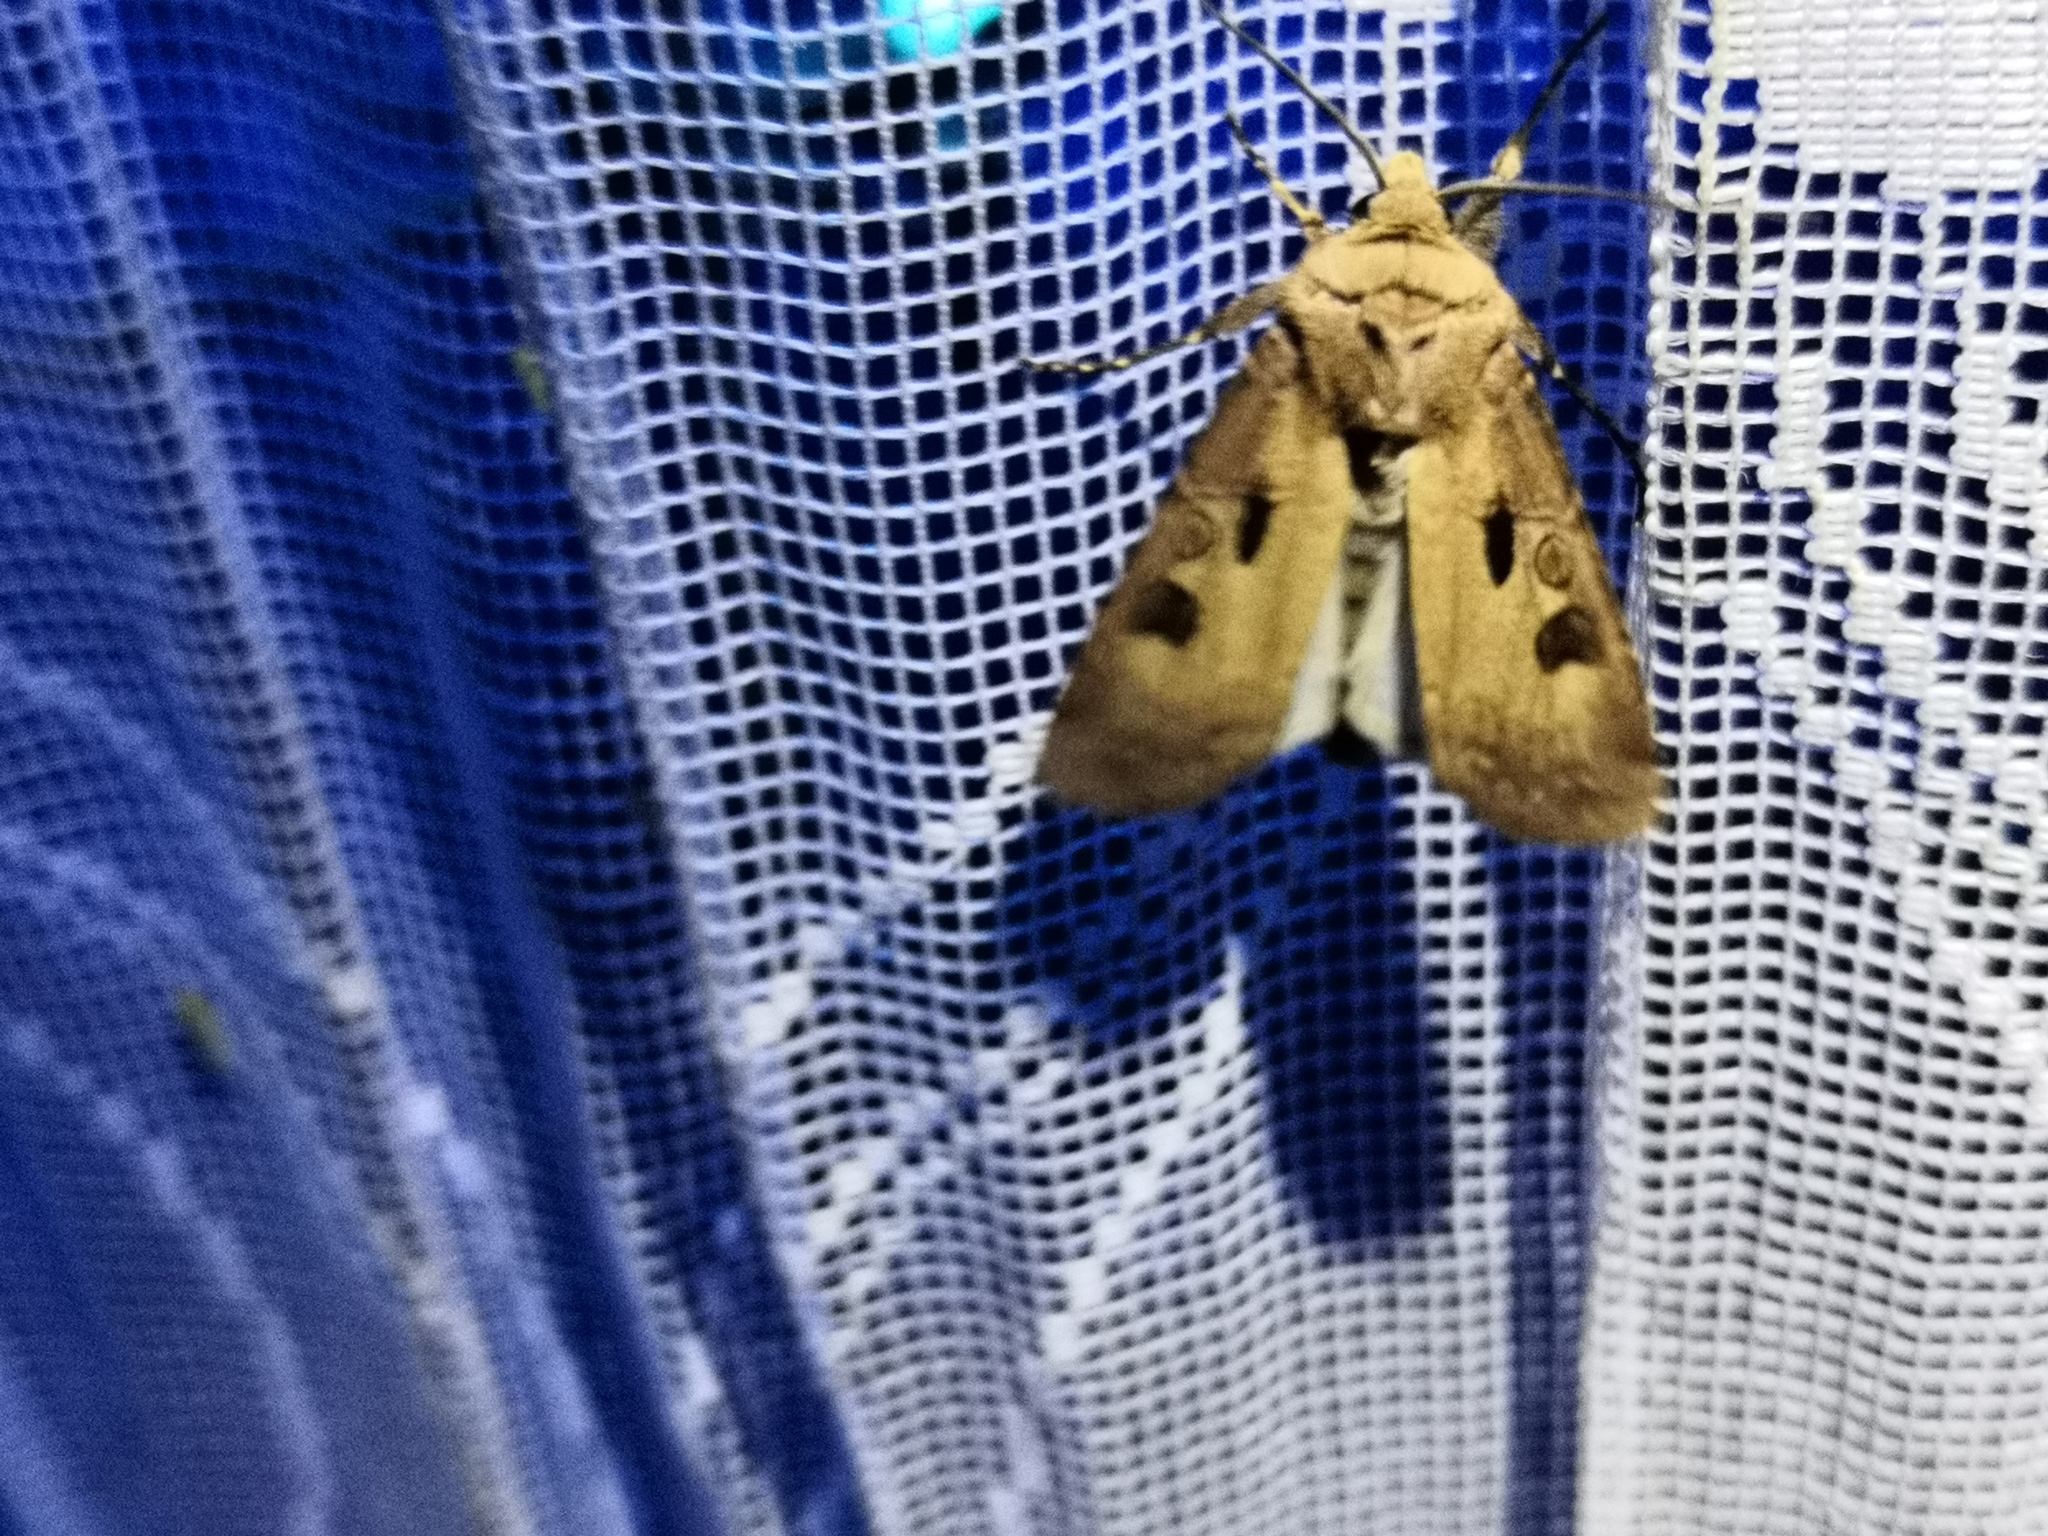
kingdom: Animalia
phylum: Arthropoda
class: Insecta
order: Lepidoptera
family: Noctuidae
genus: Agrotis
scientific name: Agrotis exclamationis
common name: Heart and dart
